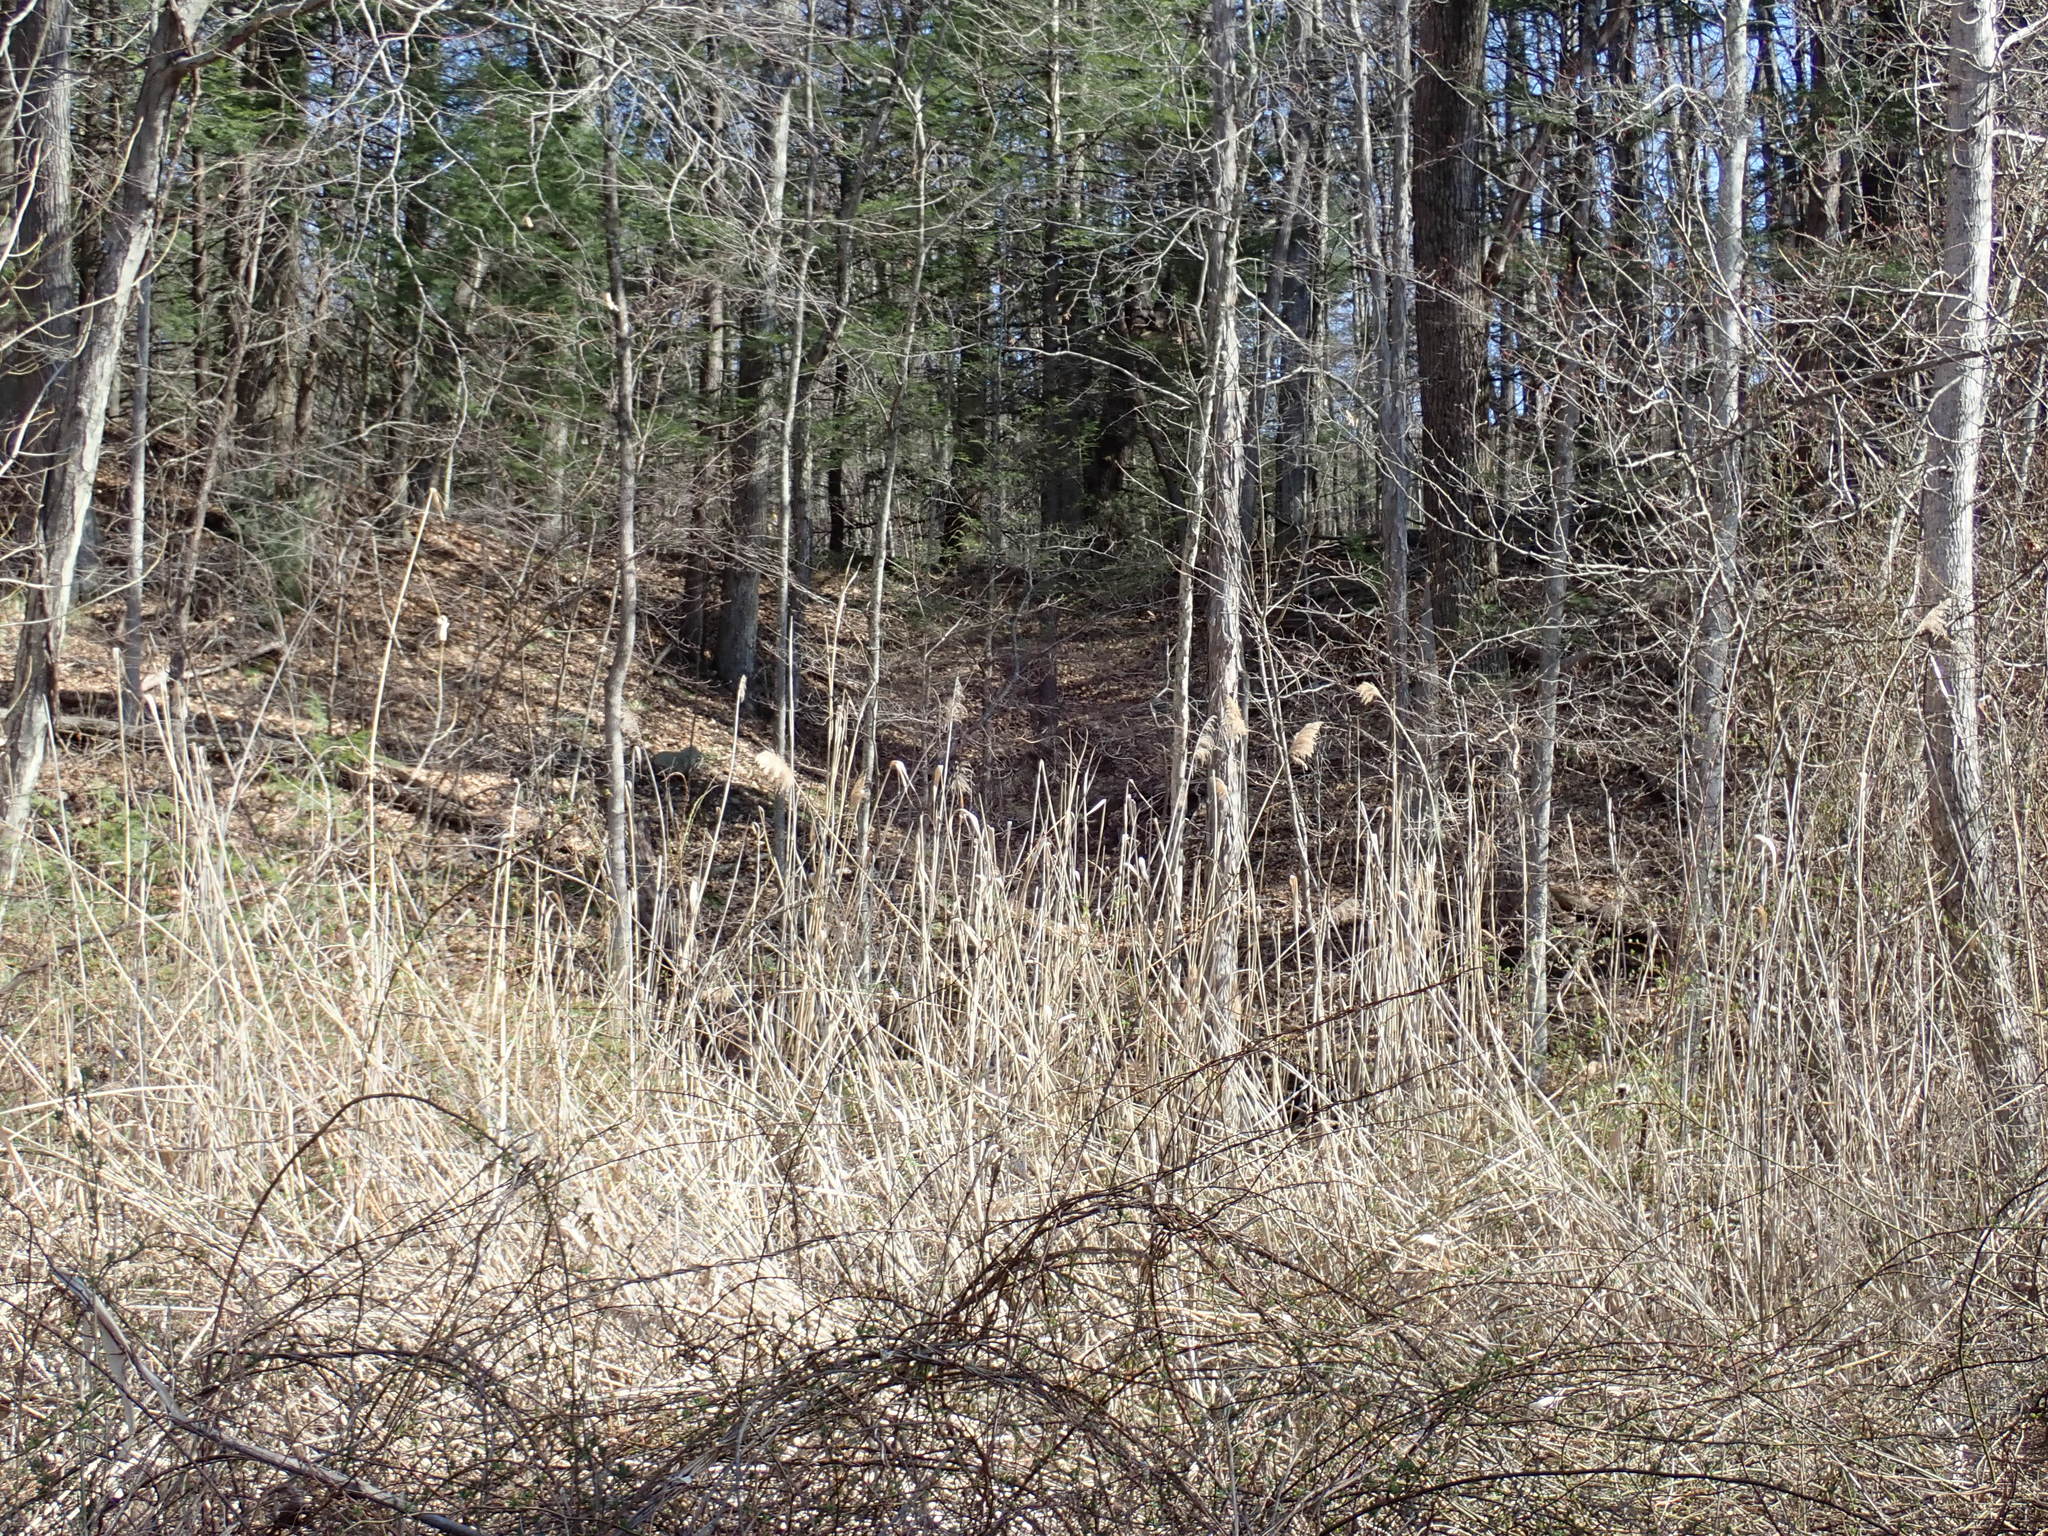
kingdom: Plantae
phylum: Tracheophyta
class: Liliopsida
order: Poales
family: Poaceae
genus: Phragmites
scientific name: Phragmites australis
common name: Common reed
